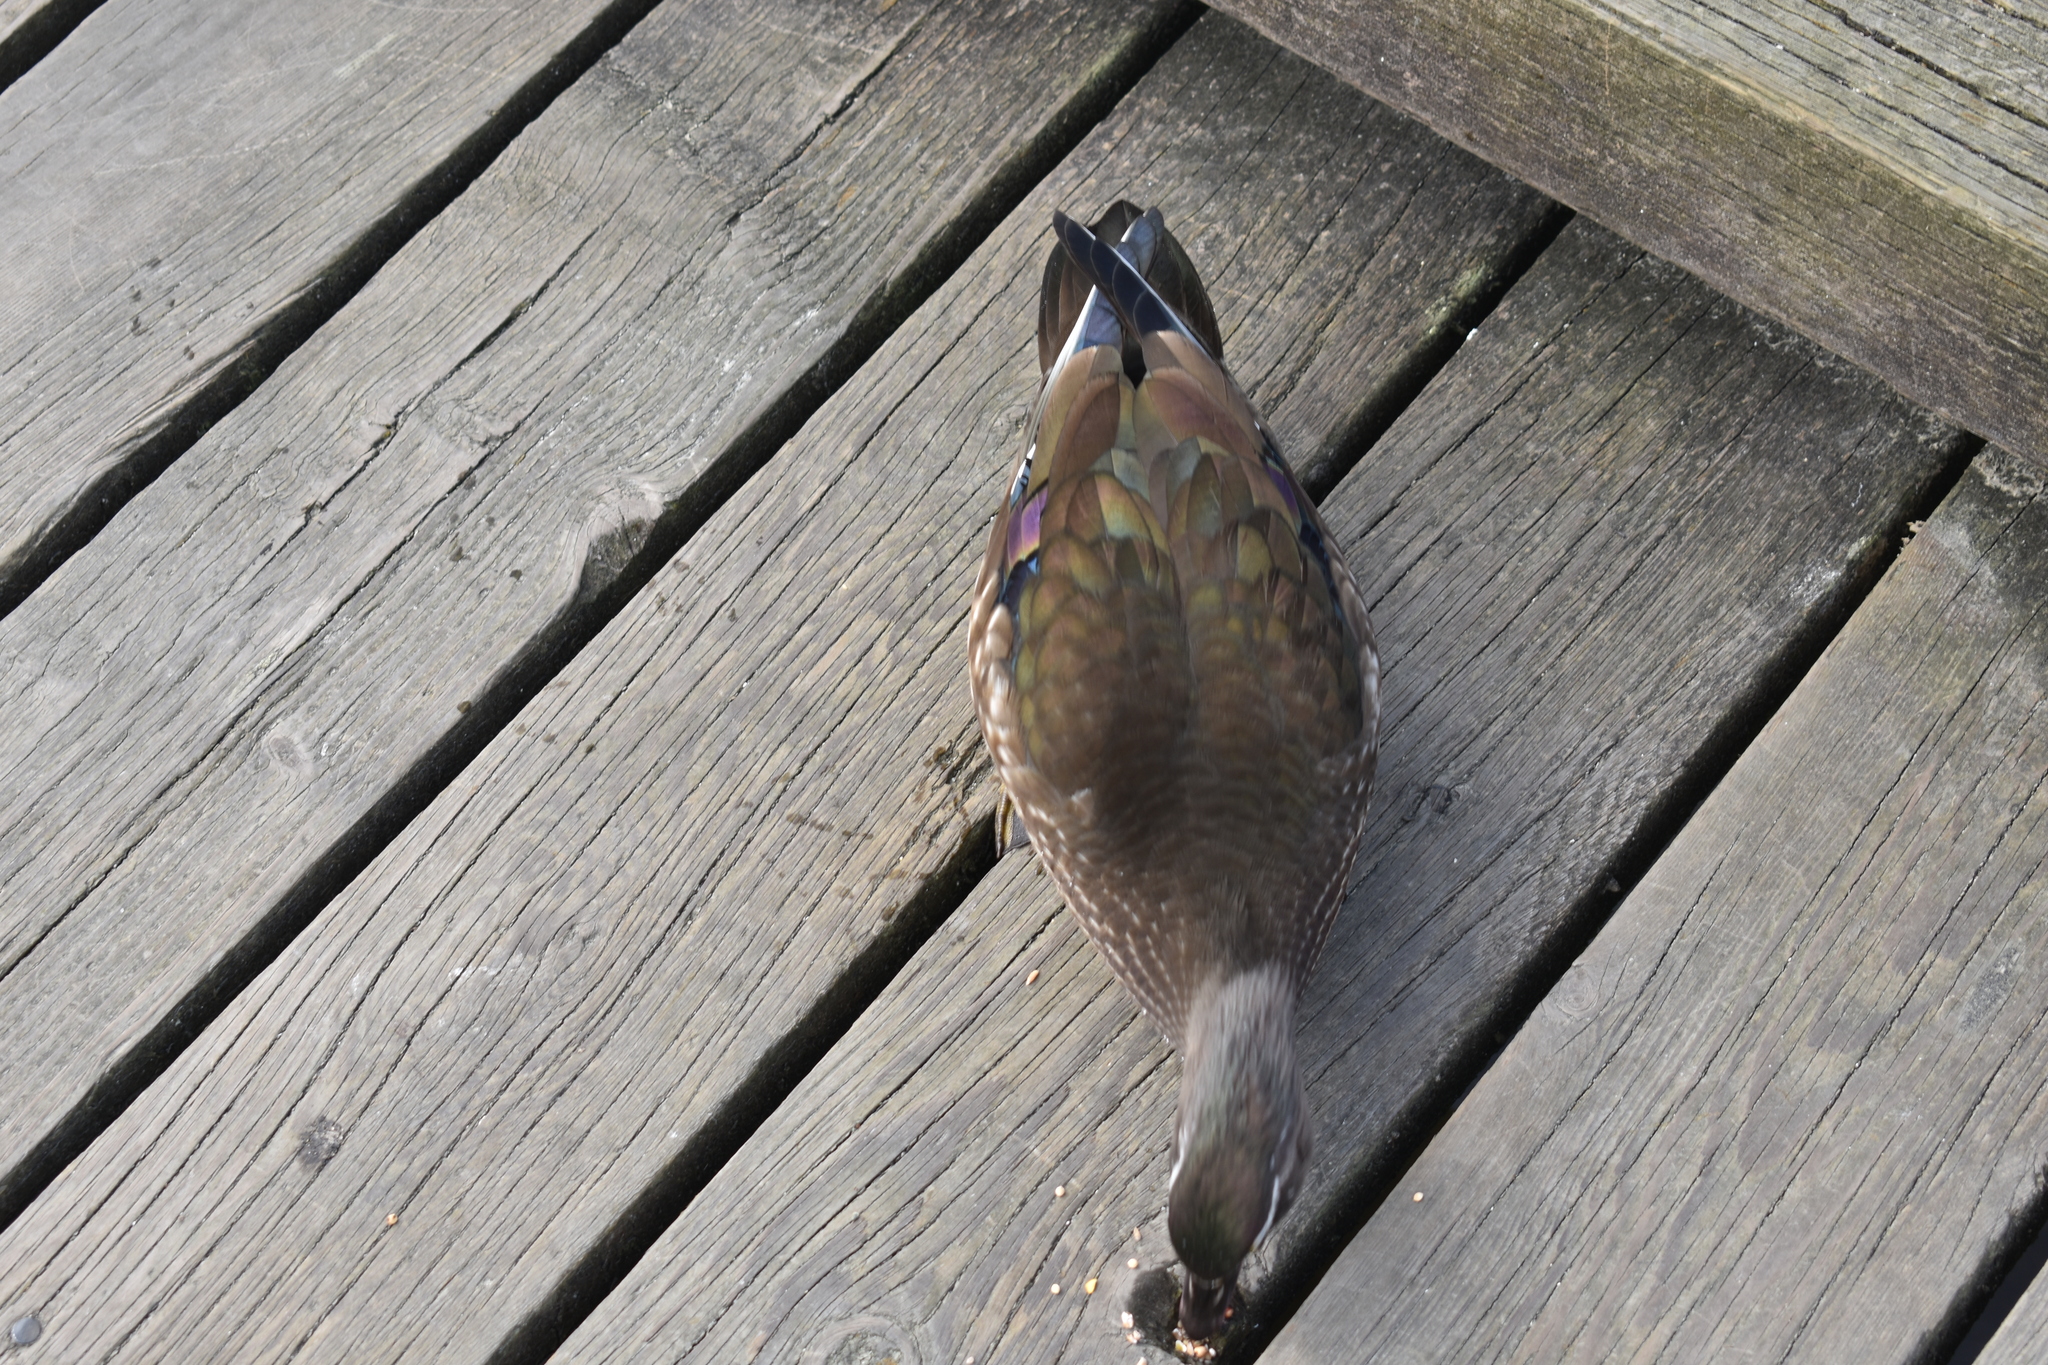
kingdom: Animalia
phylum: Chordata
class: Aves
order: Anseriformes
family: Anatidae
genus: Aix
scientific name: Aix sponsa
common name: Wood duck
